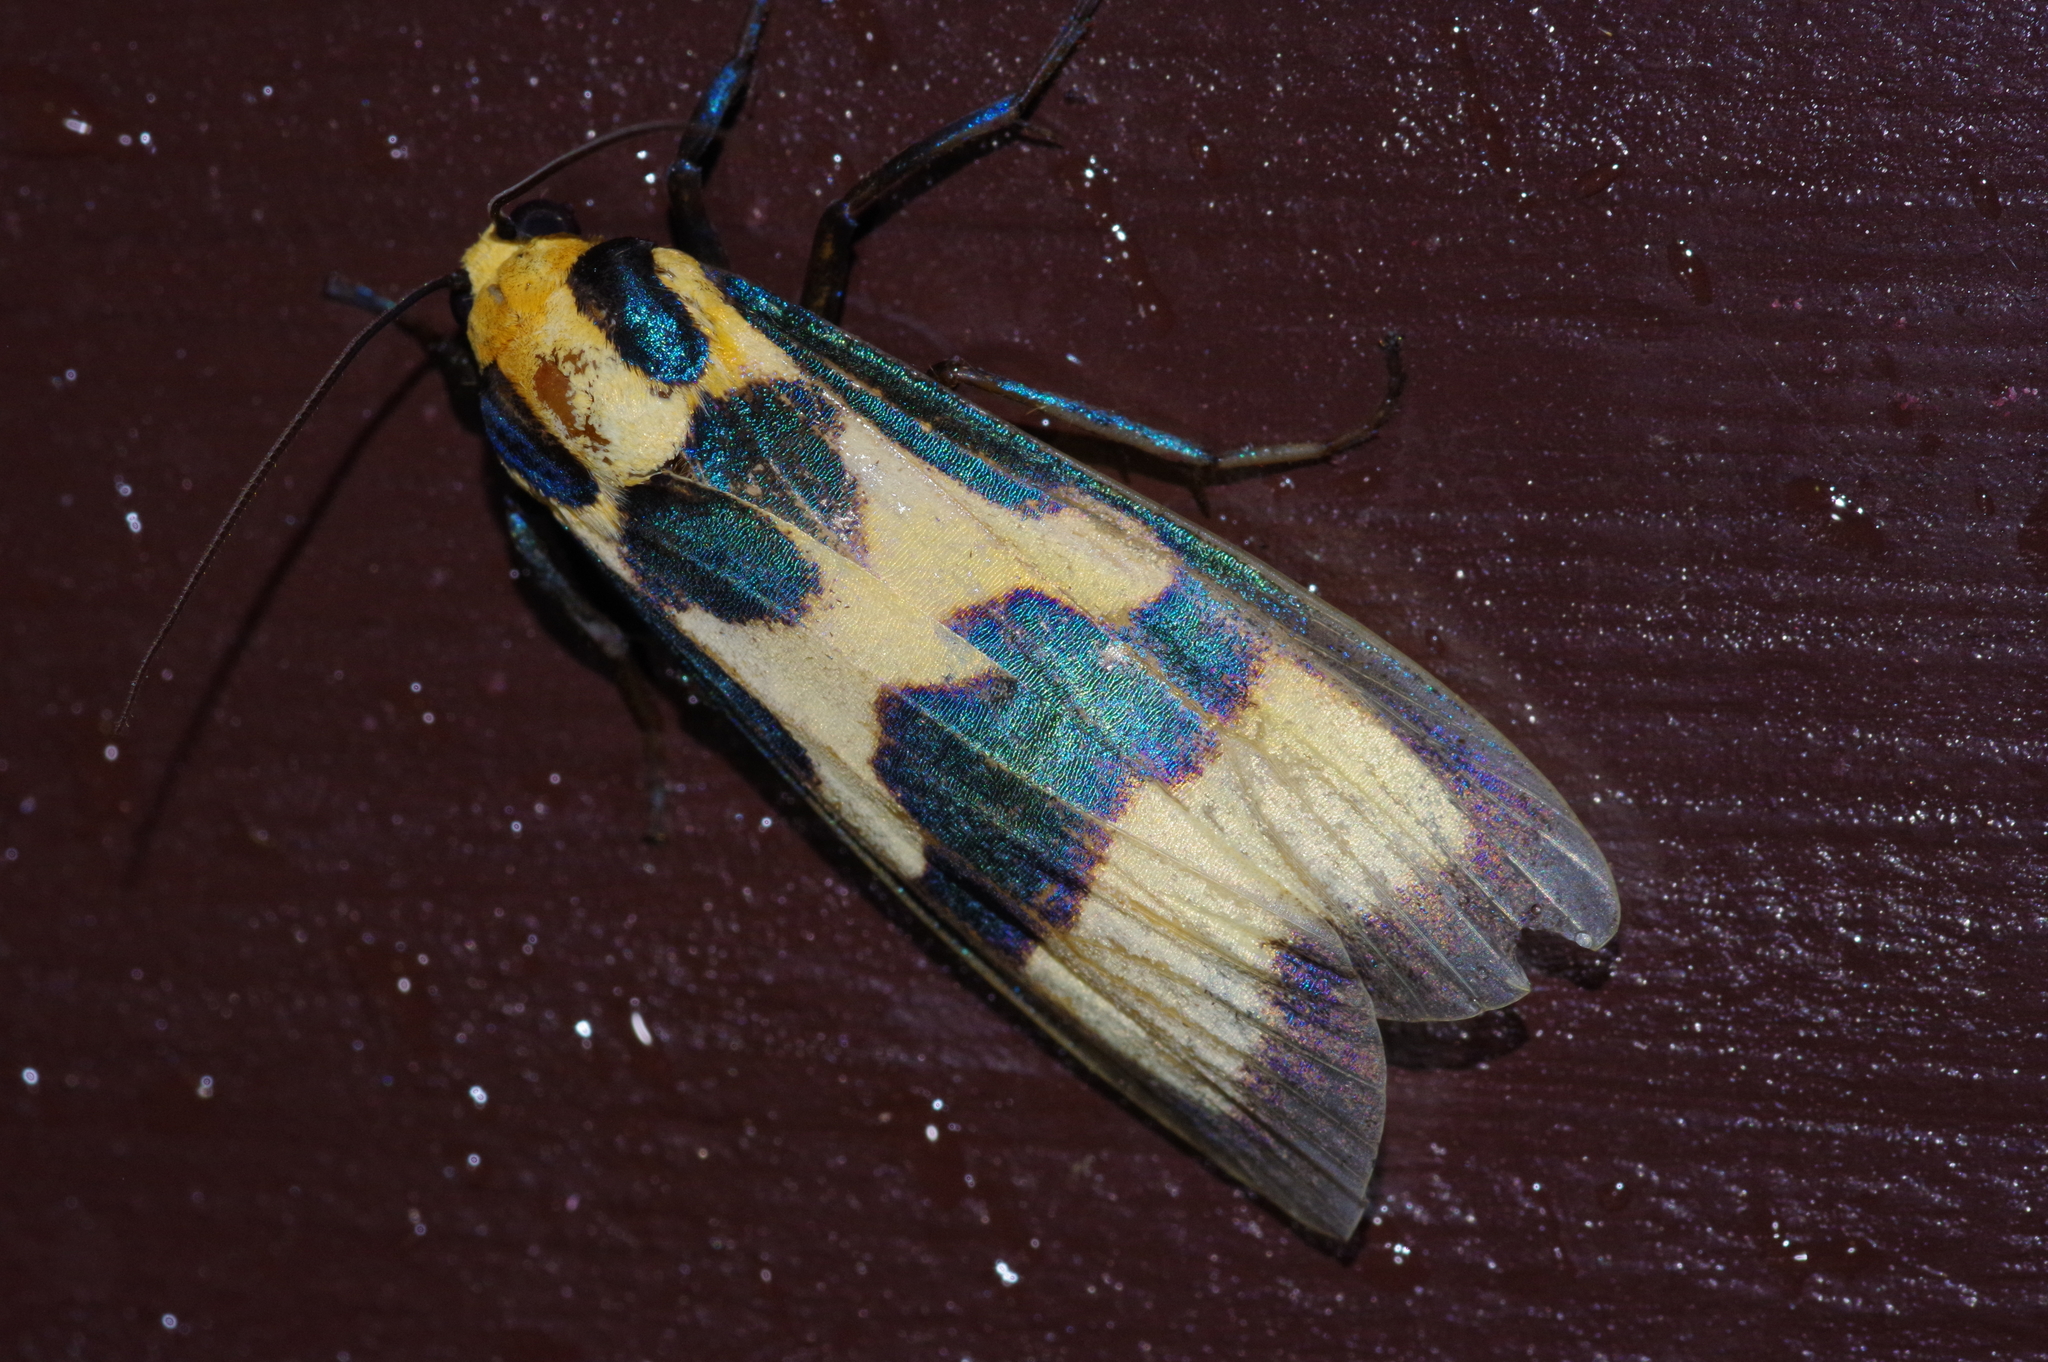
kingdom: Animalia
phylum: Arthropoda
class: Insecta
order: Lepidoptera
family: Erebidae
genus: Chrysaeglia
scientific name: Chrysaeglia magnifica
